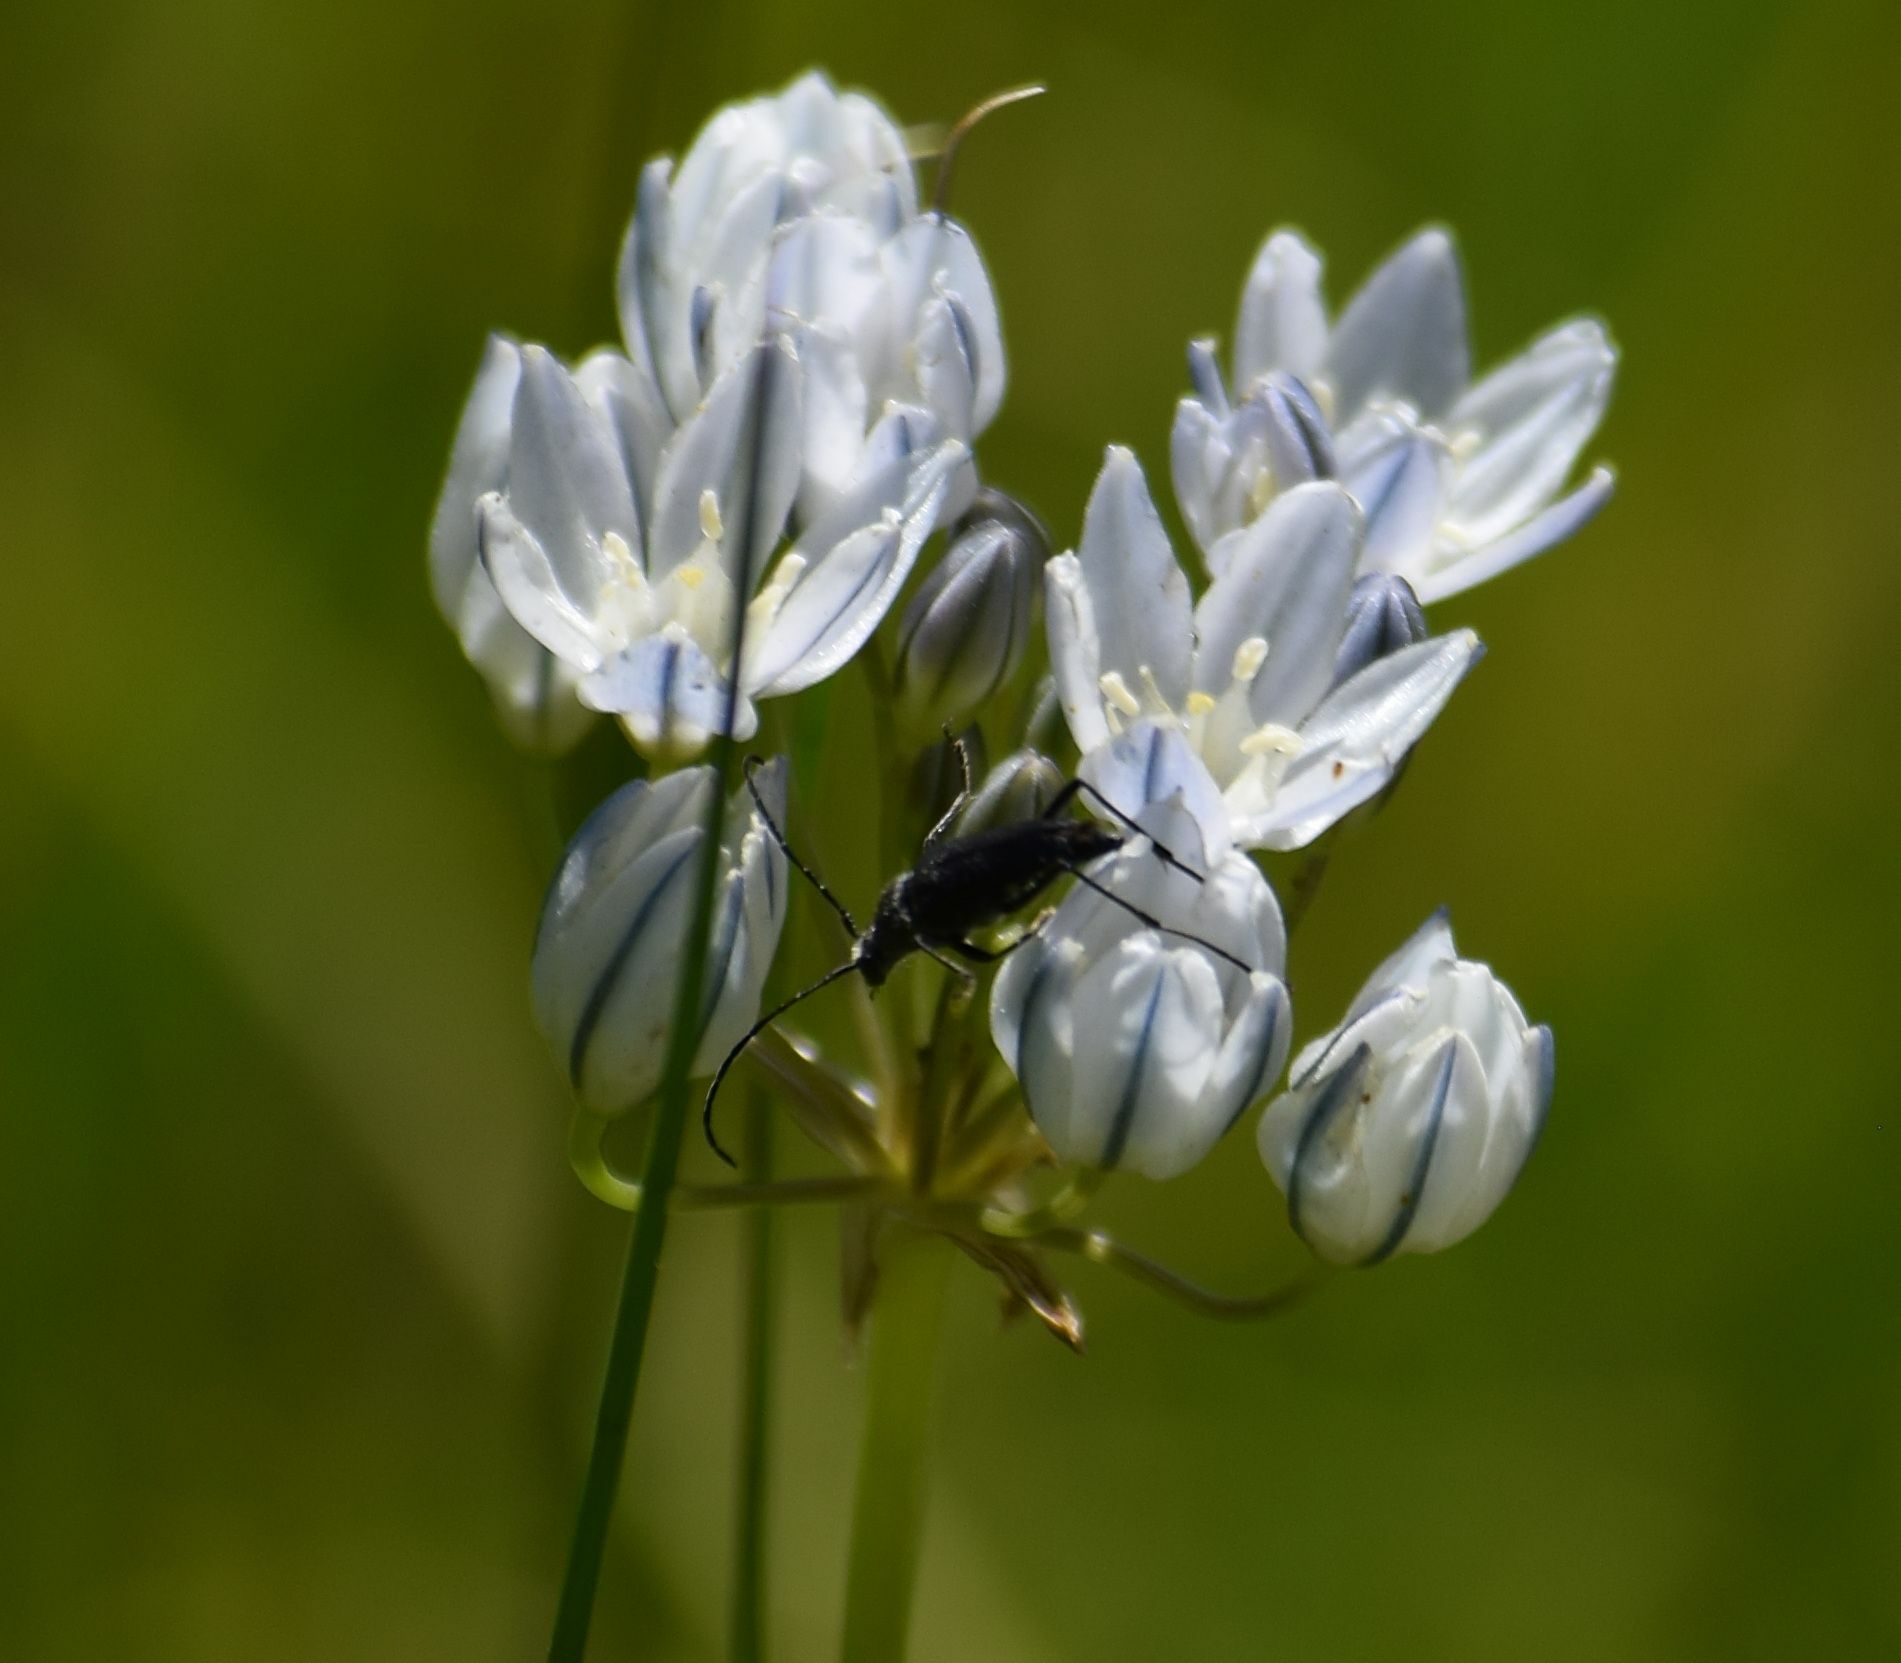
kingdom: Animalia
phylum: Arthropoda
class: Insecta
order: Coleoptera
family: Cerambycidae
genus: Anastrangalia
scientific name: Anastrangalia laetifica
